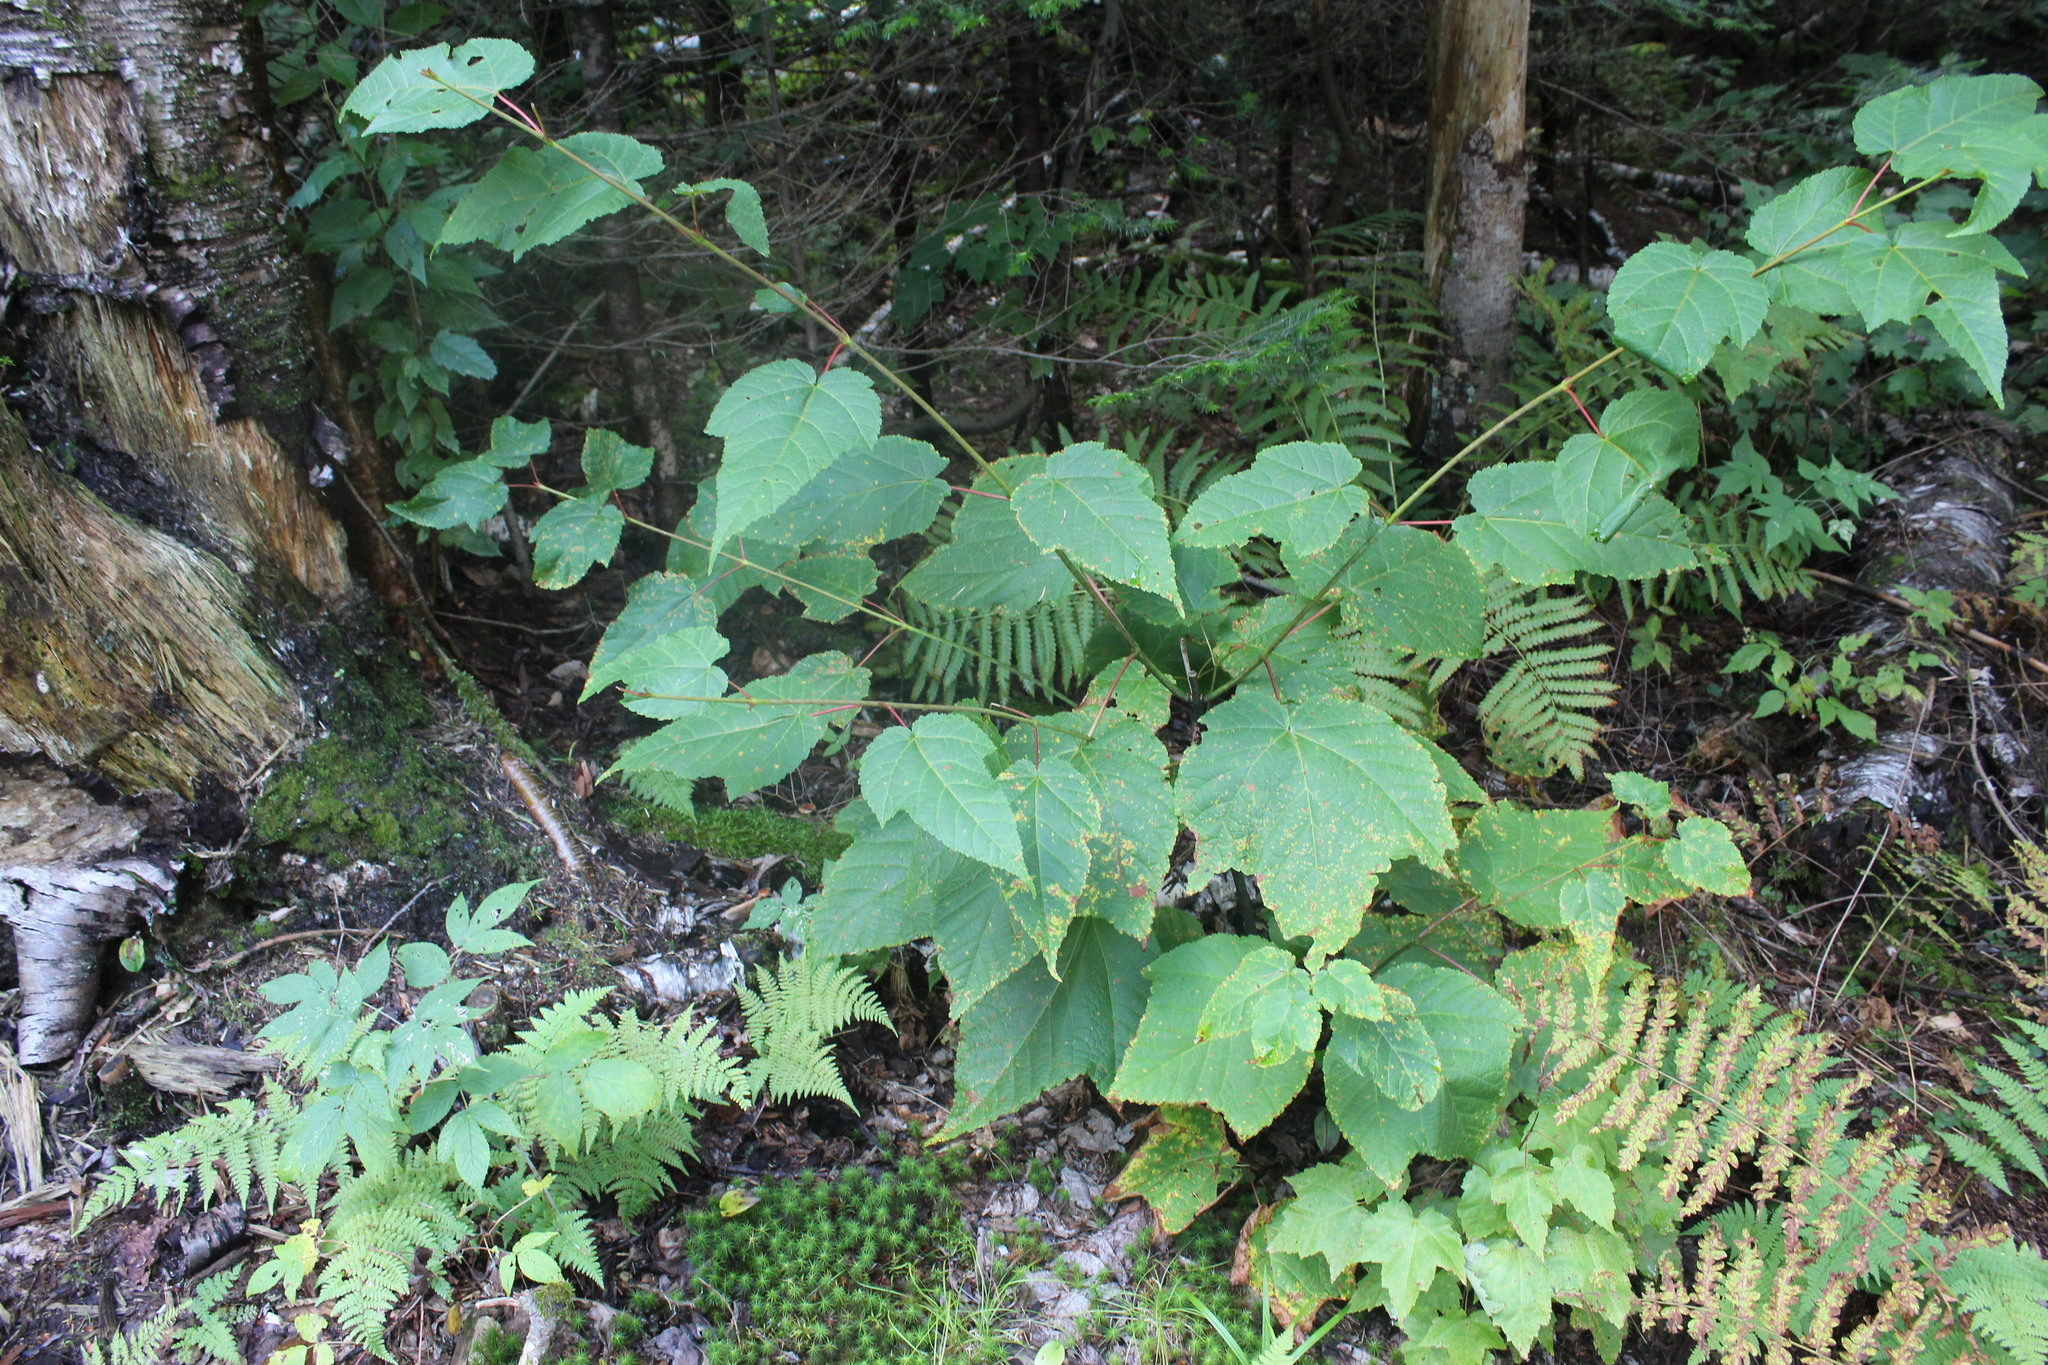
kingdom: Plantae
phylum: Tracheophyta
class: Magnoliopsida
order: Sapindales
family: Sapindaceae
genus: Acer
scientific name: Acer pensylvanicum
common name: Moosewood
